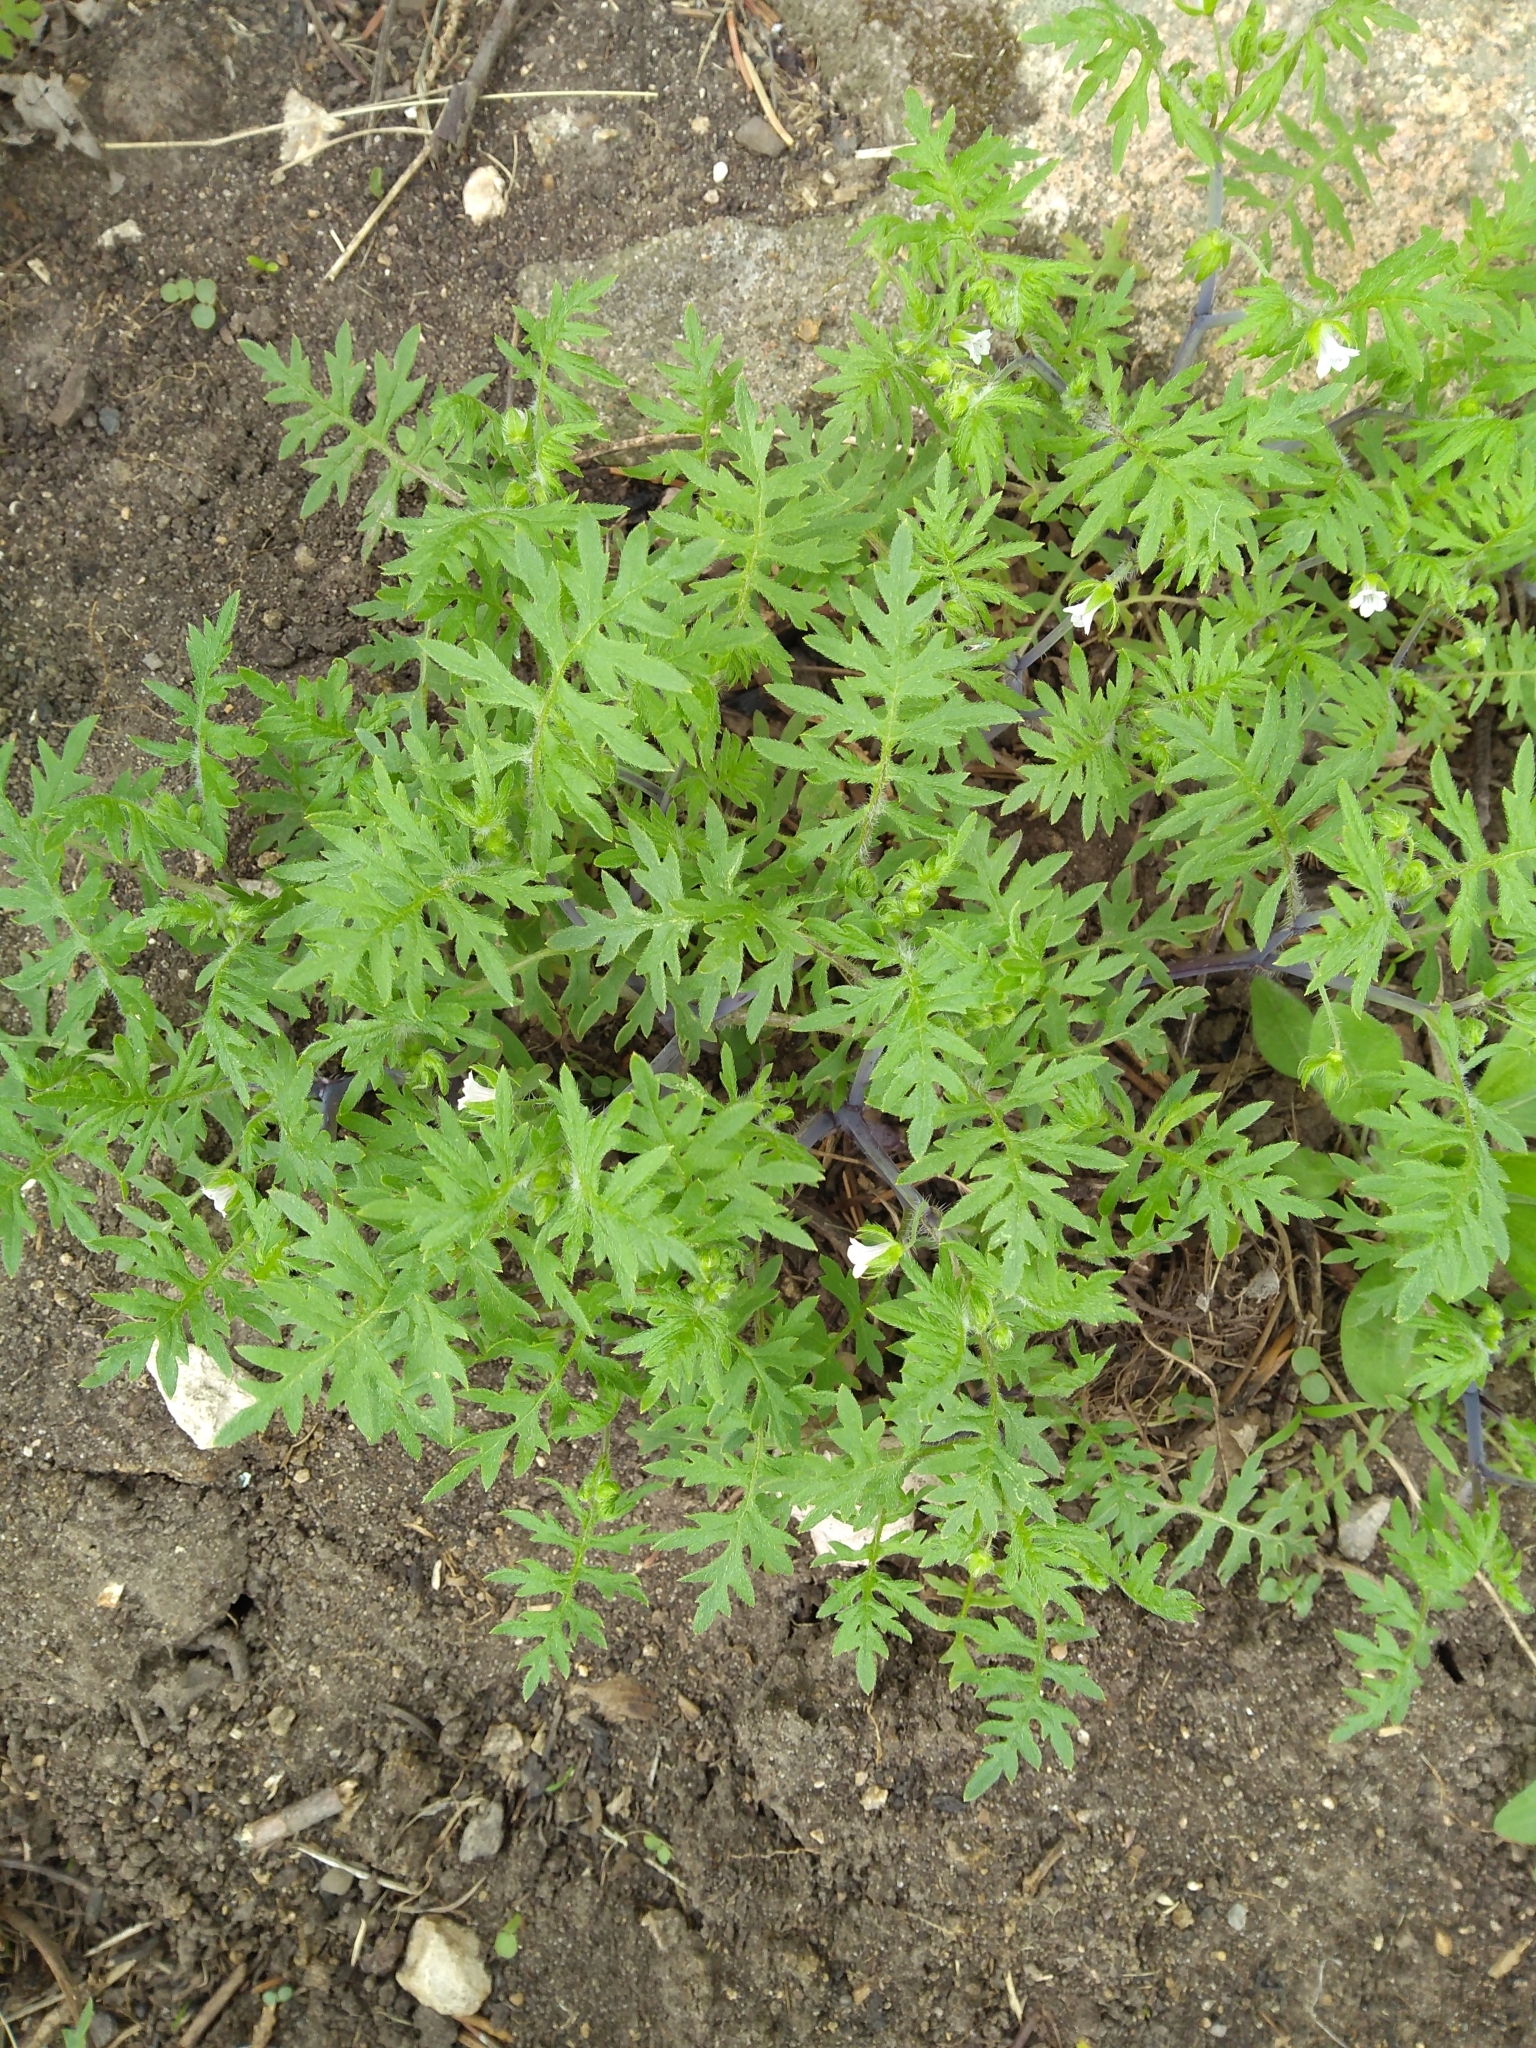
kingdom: Plantae
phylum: Tracheophyta
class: Magnoliopsida
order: Boraginales
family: Hydrophyllaceae
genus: Ellisia
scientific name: Ellisia nyctelea
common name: Aunt lucy
